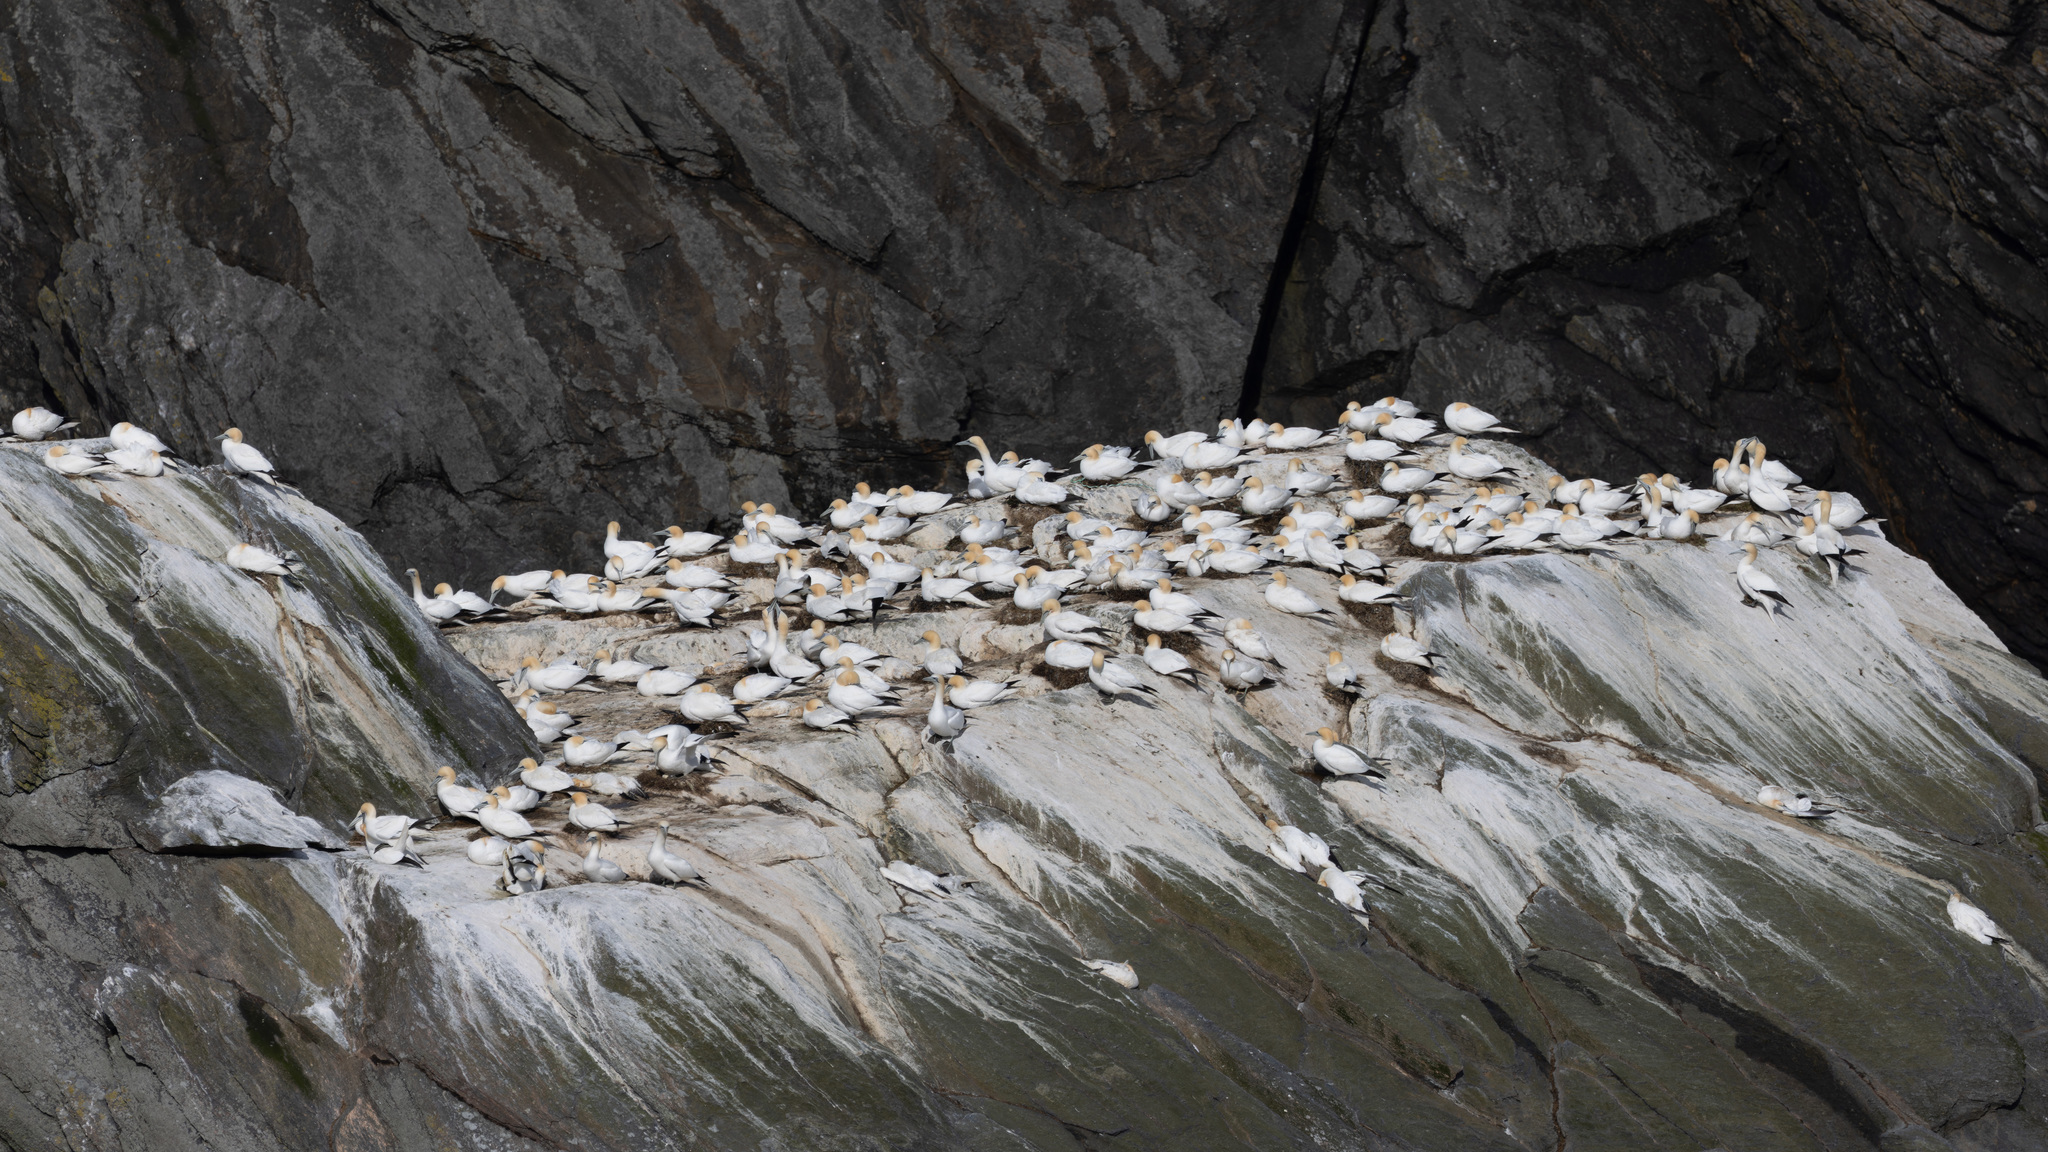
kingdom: Animalia
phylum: Chordata
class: Aves
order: Suliformes
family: Sulidae
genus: Morus
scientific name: Morus bassanus
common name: Northern gannet
